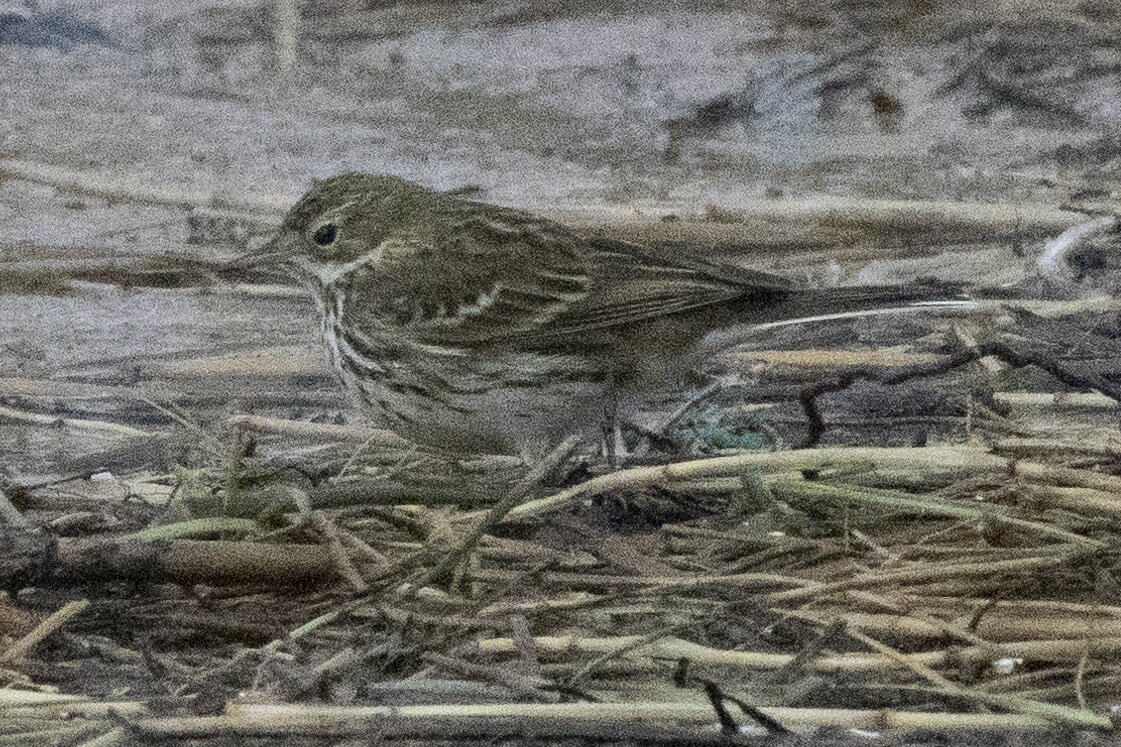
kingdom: Animalia
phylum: Chordata
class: Aves
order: Passeriformes
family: Motacillidae
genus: Anthus
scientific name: Anthus pratensis
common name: Meadow pipit
